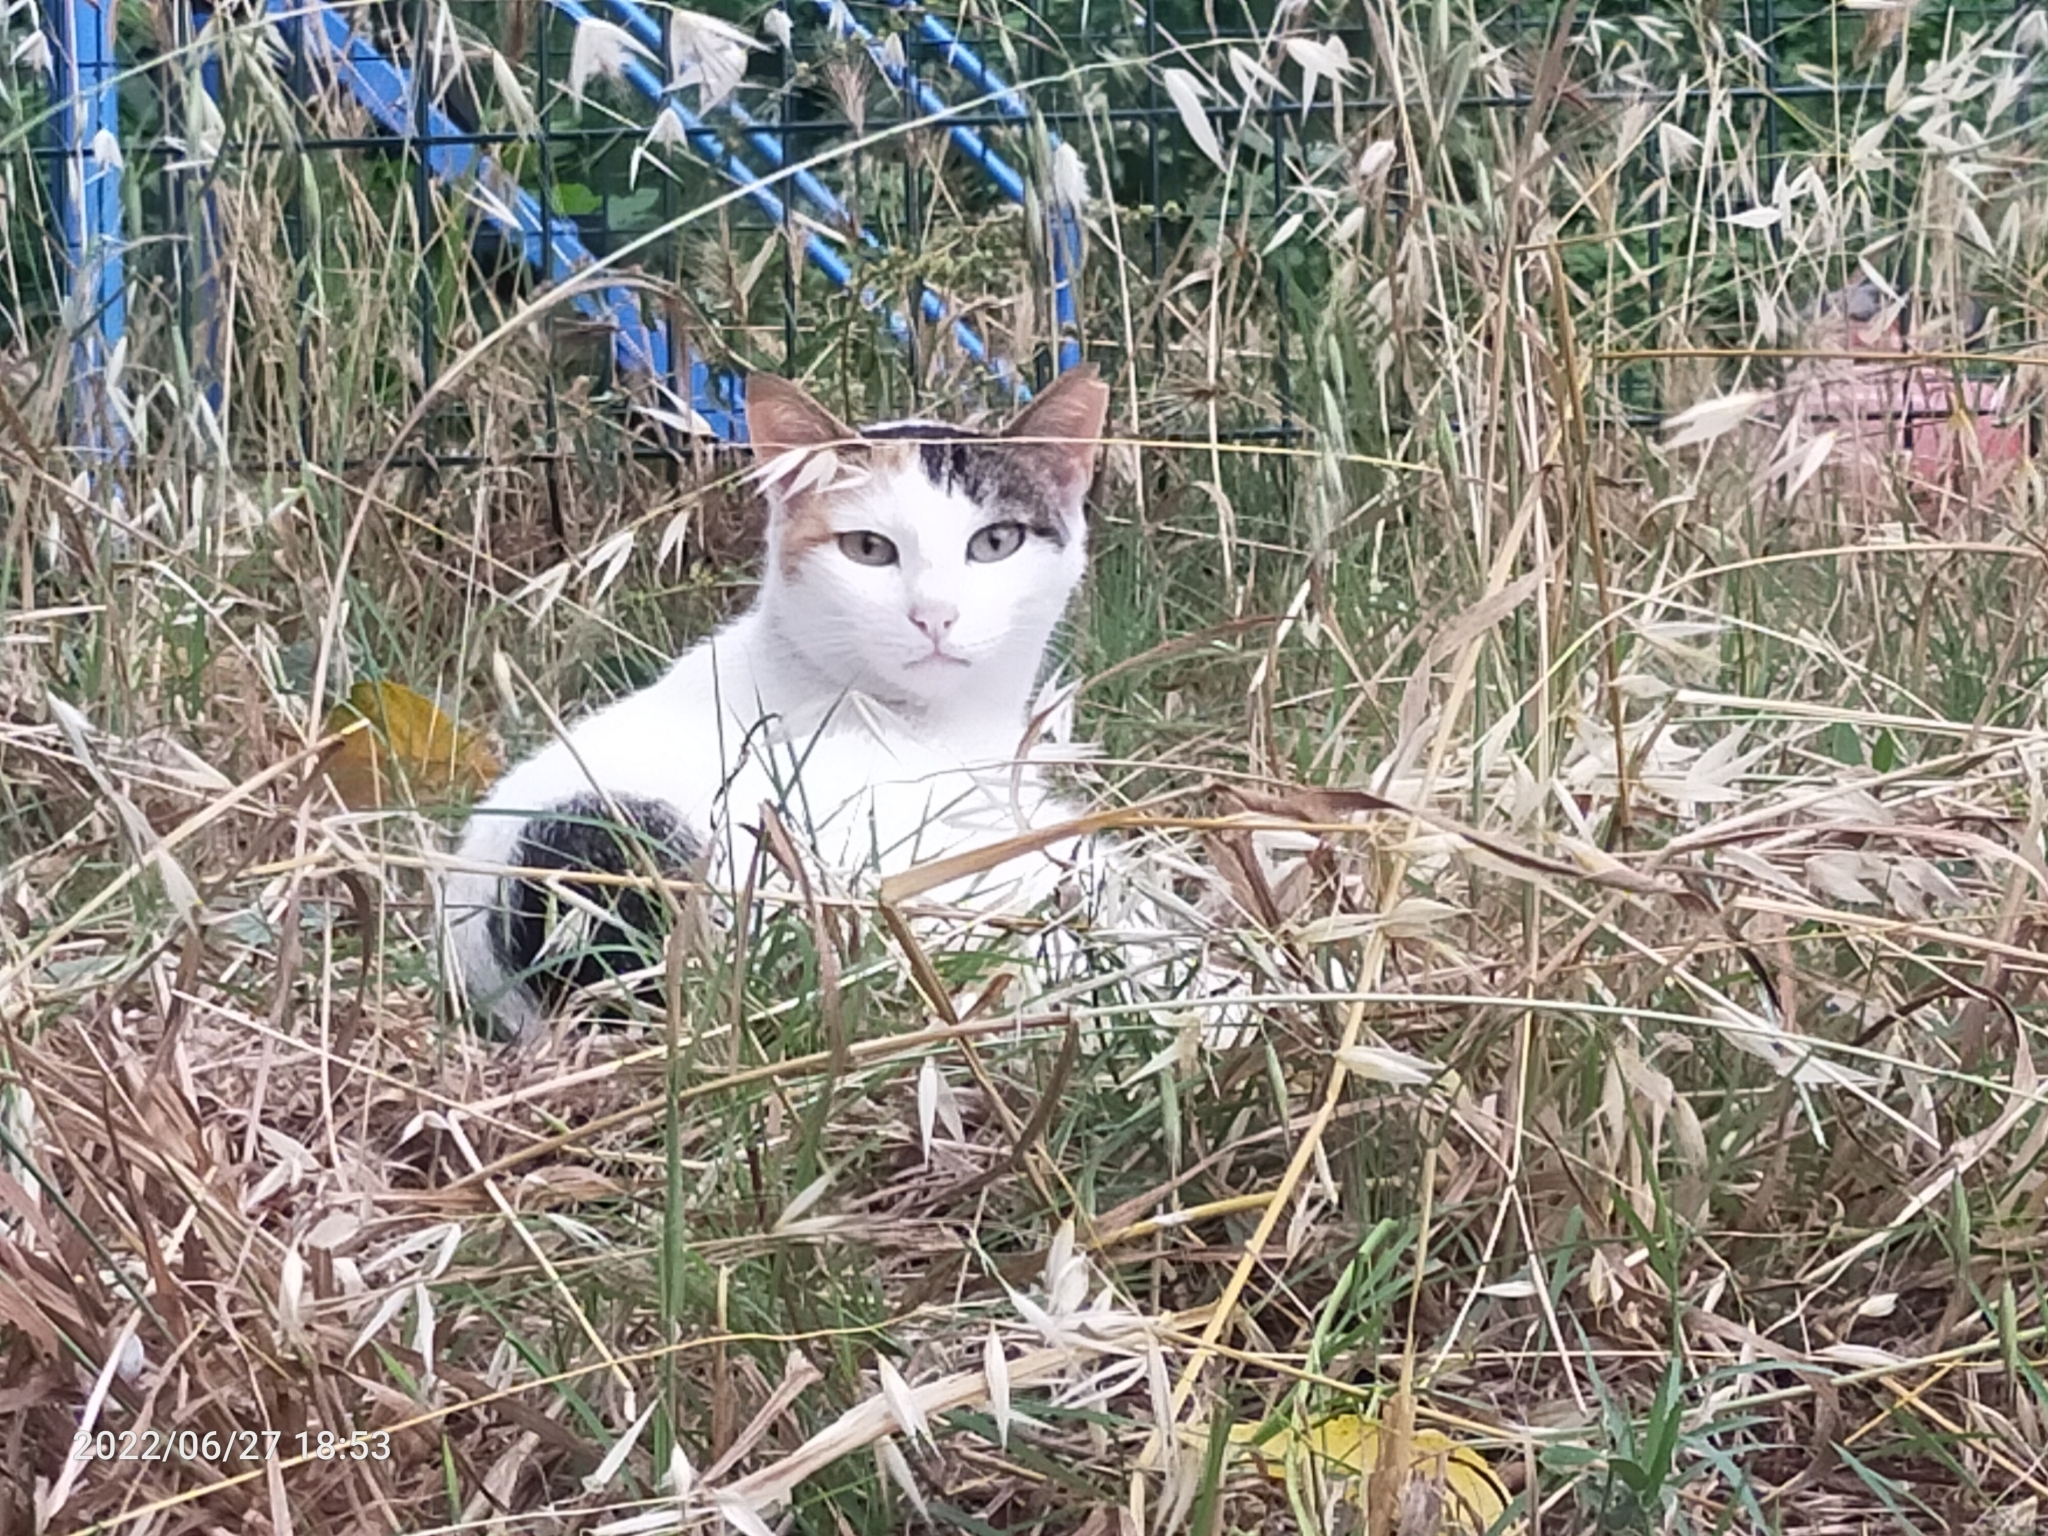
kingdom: Animalia
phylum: Chordata
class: Mammalia
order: Carnivora
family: Felidae
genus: Felis
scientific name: Felis catus
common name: Domestic cat
